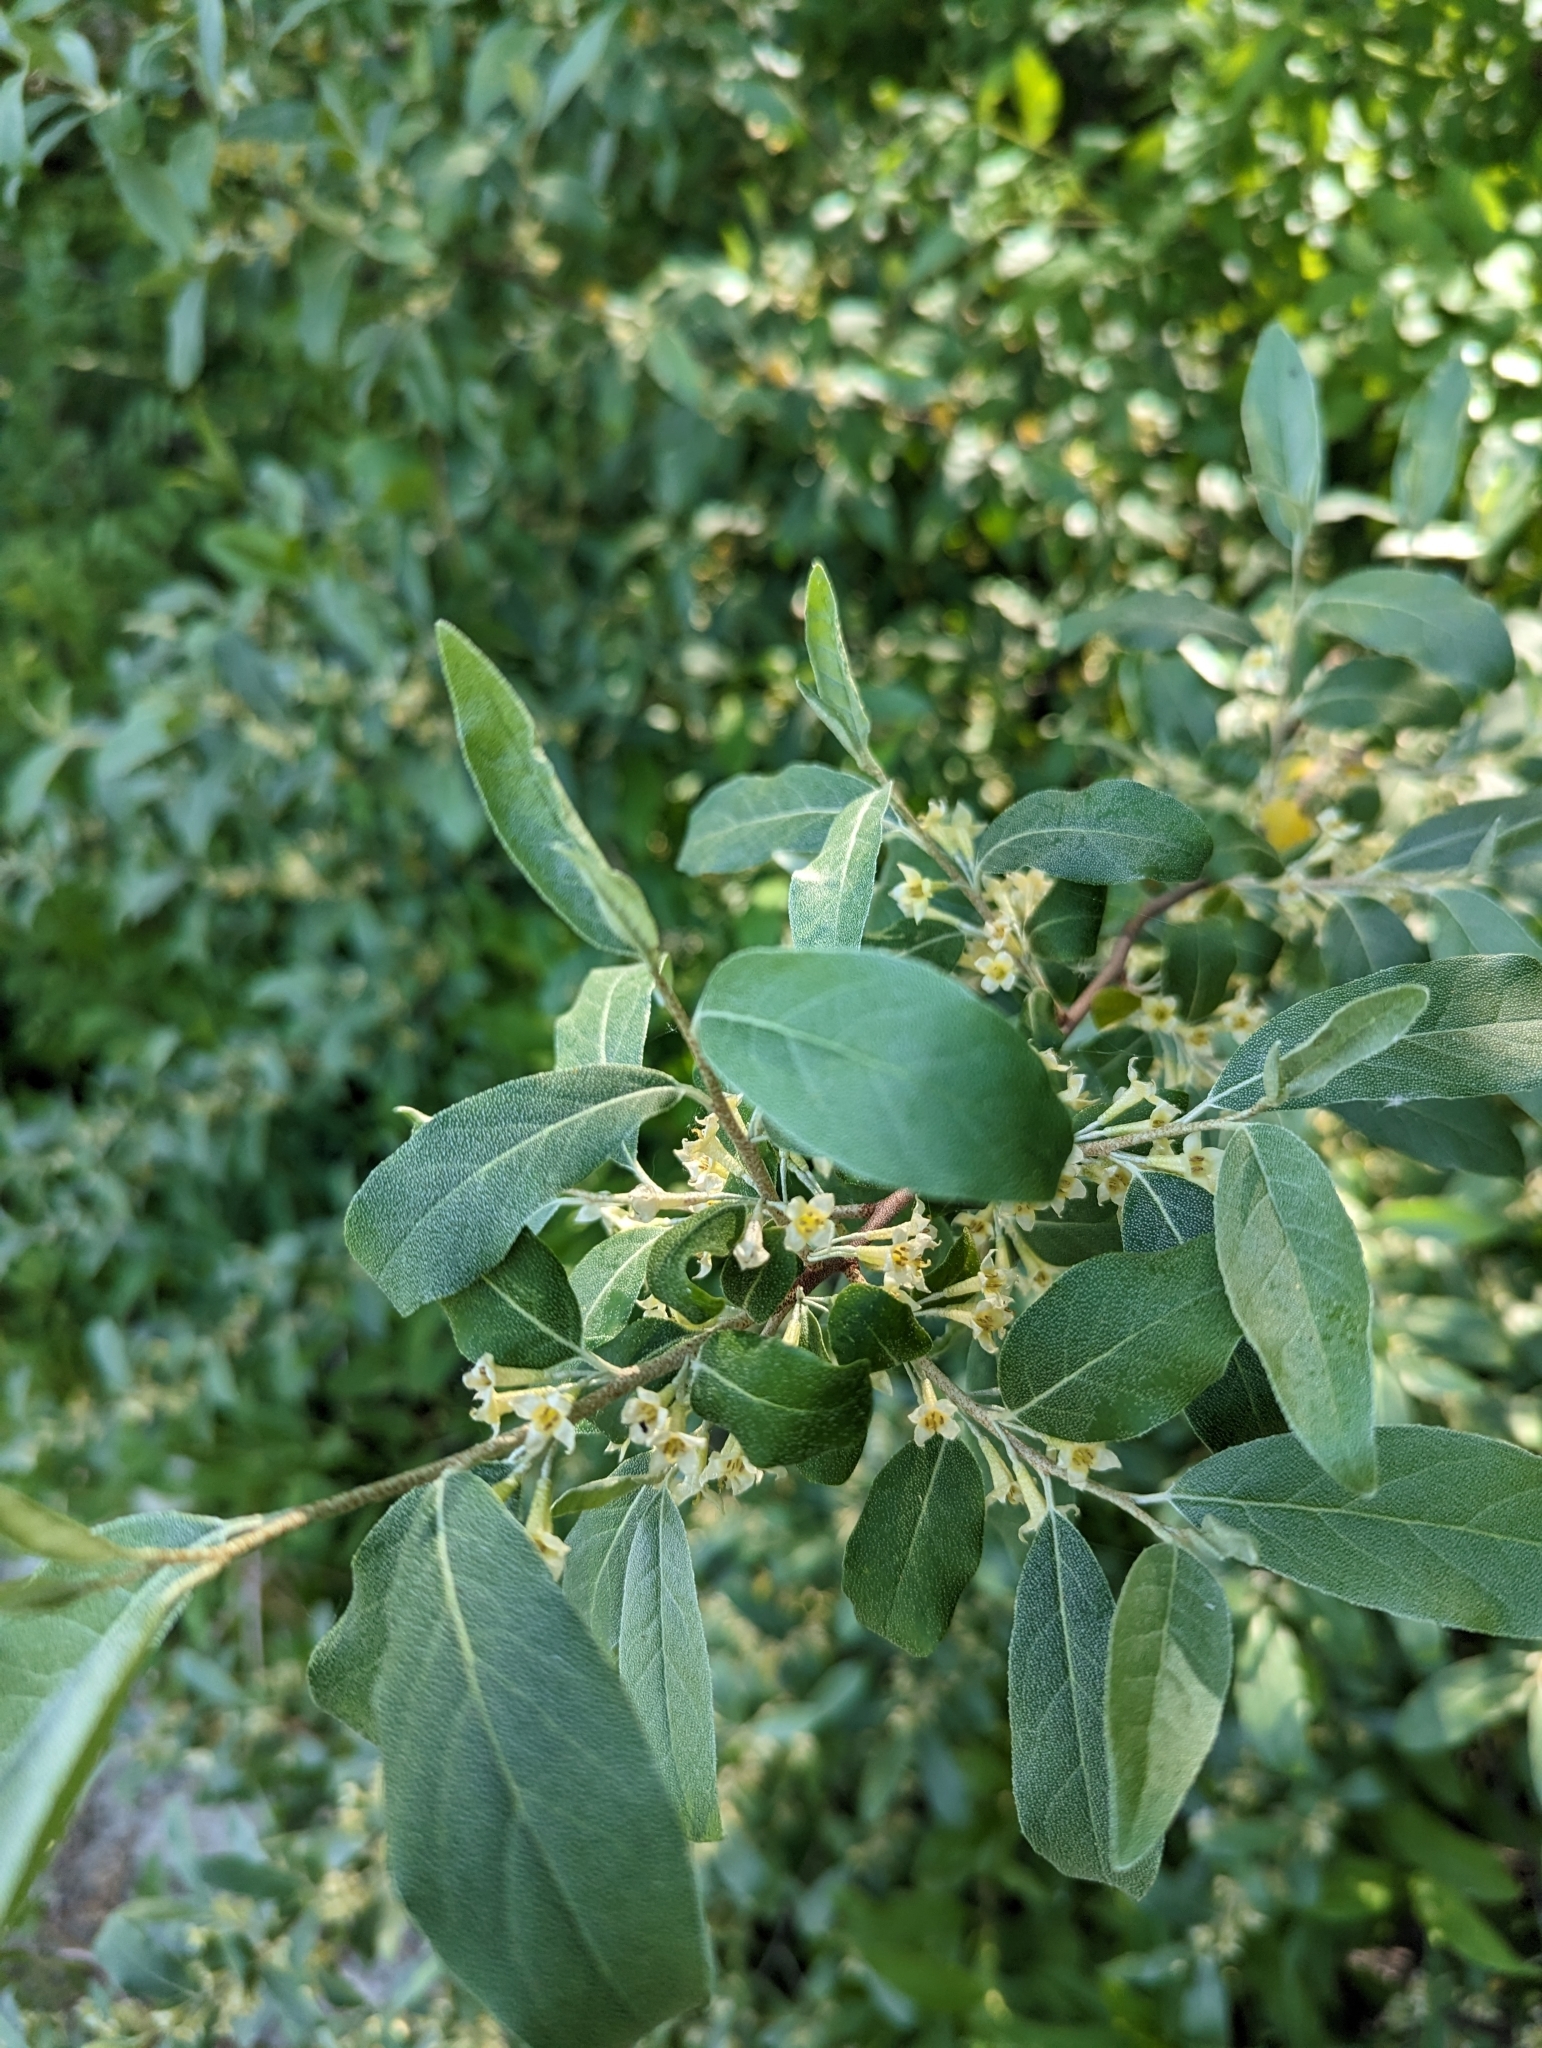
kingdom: Plantae
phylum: Tracheophyta
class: Magnoliopsida
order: Rosales
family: Elaeagnaceae
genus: Elaeagnus
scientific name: Elaeagnus umbellata
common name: Autumn olive
